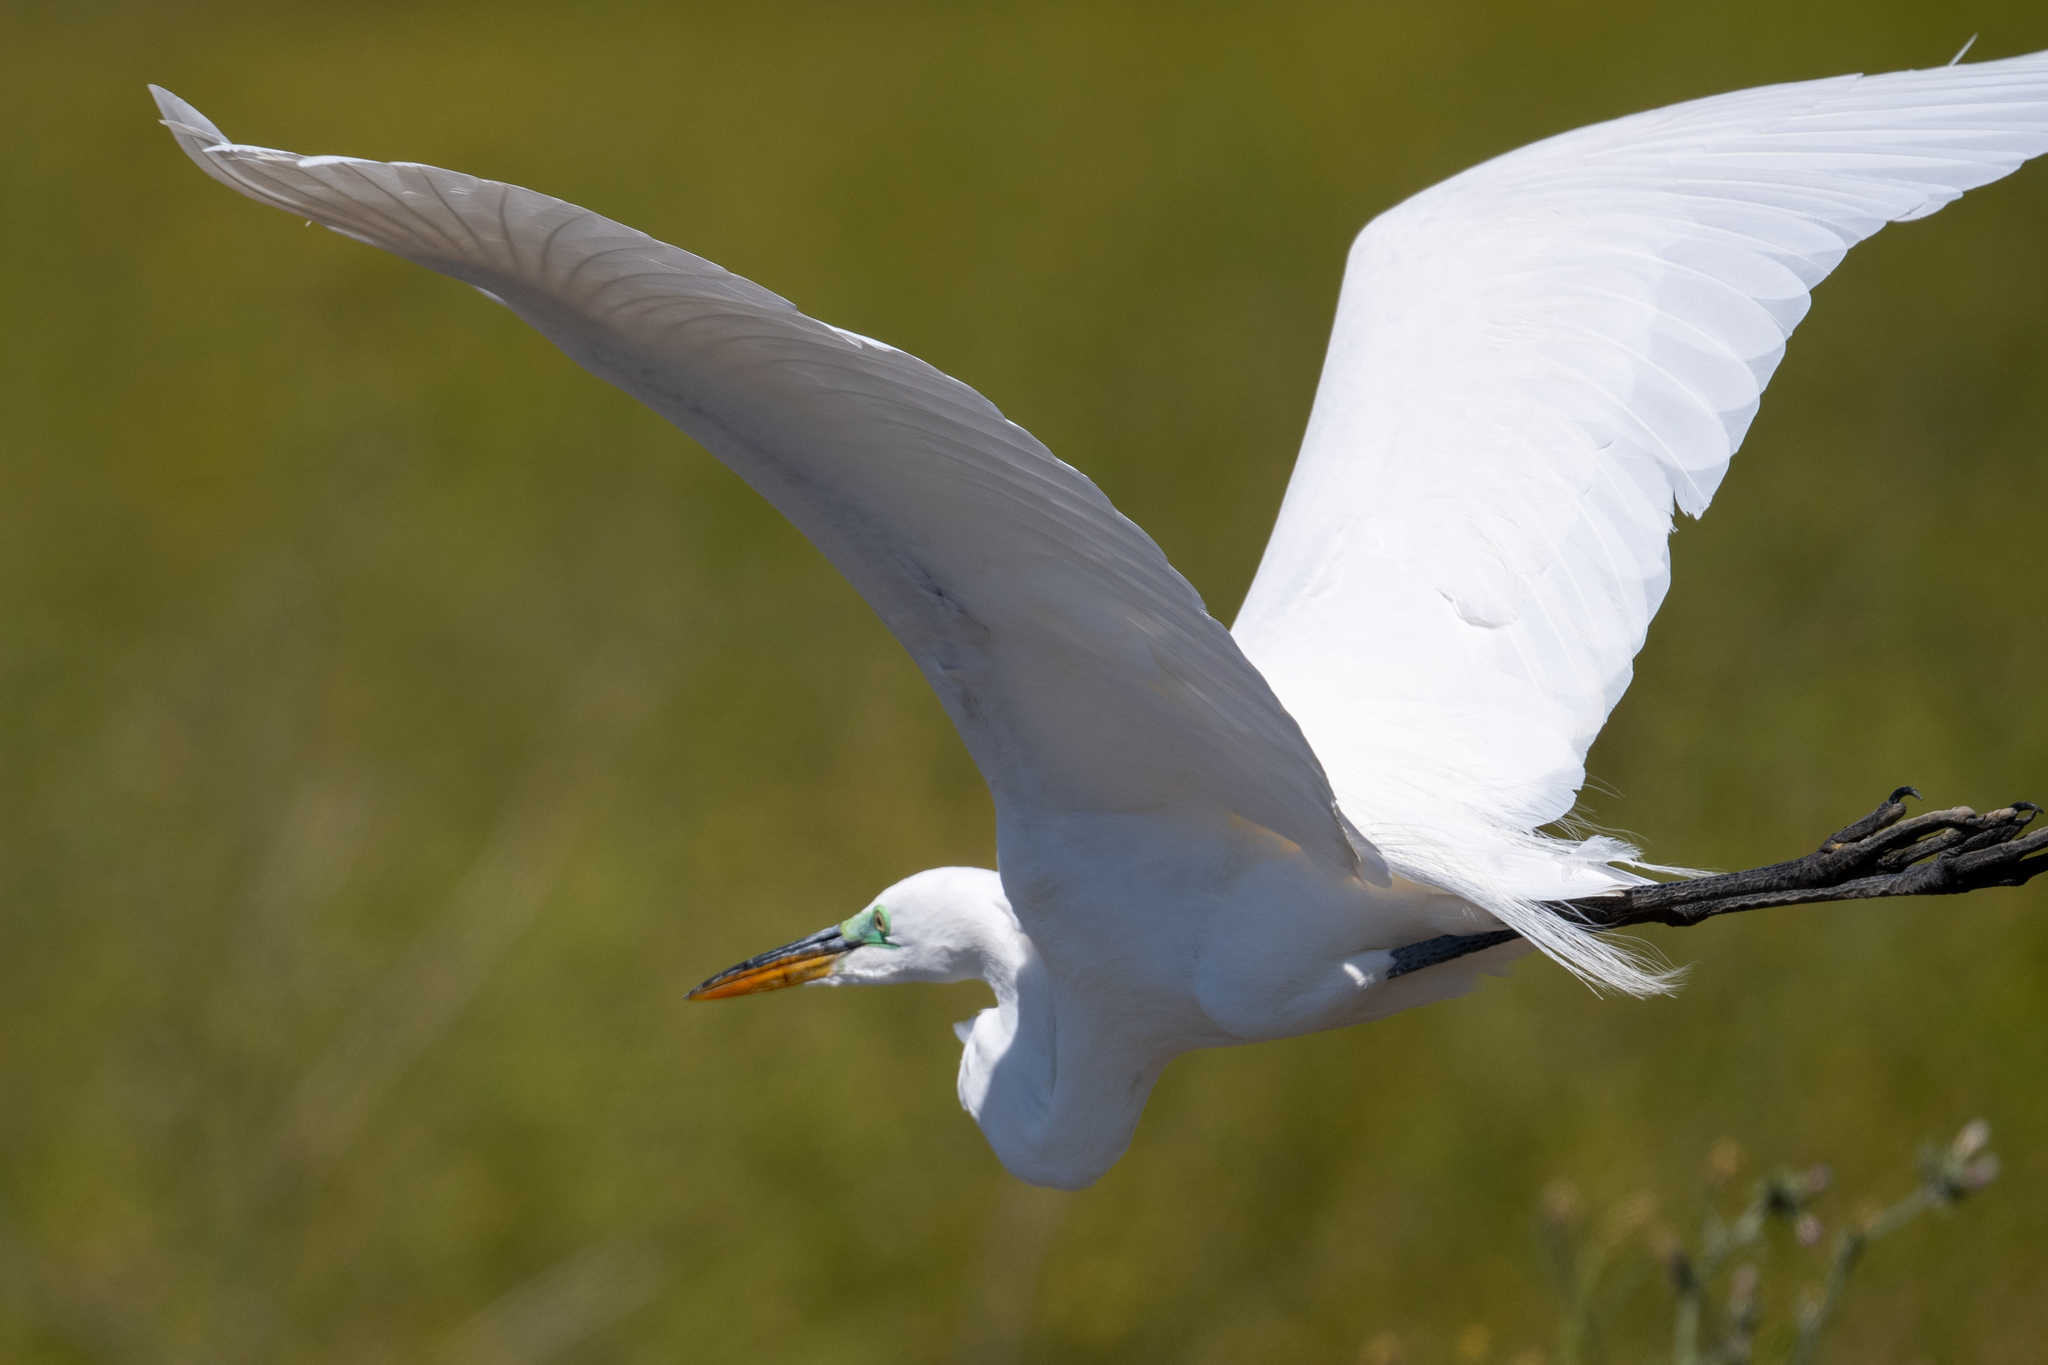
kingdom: Animalia
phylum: Chordata
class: Aves
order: Pelecaniformes
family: Ardeidae
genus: Ardea
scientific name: Ardea alba
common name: Great egret
